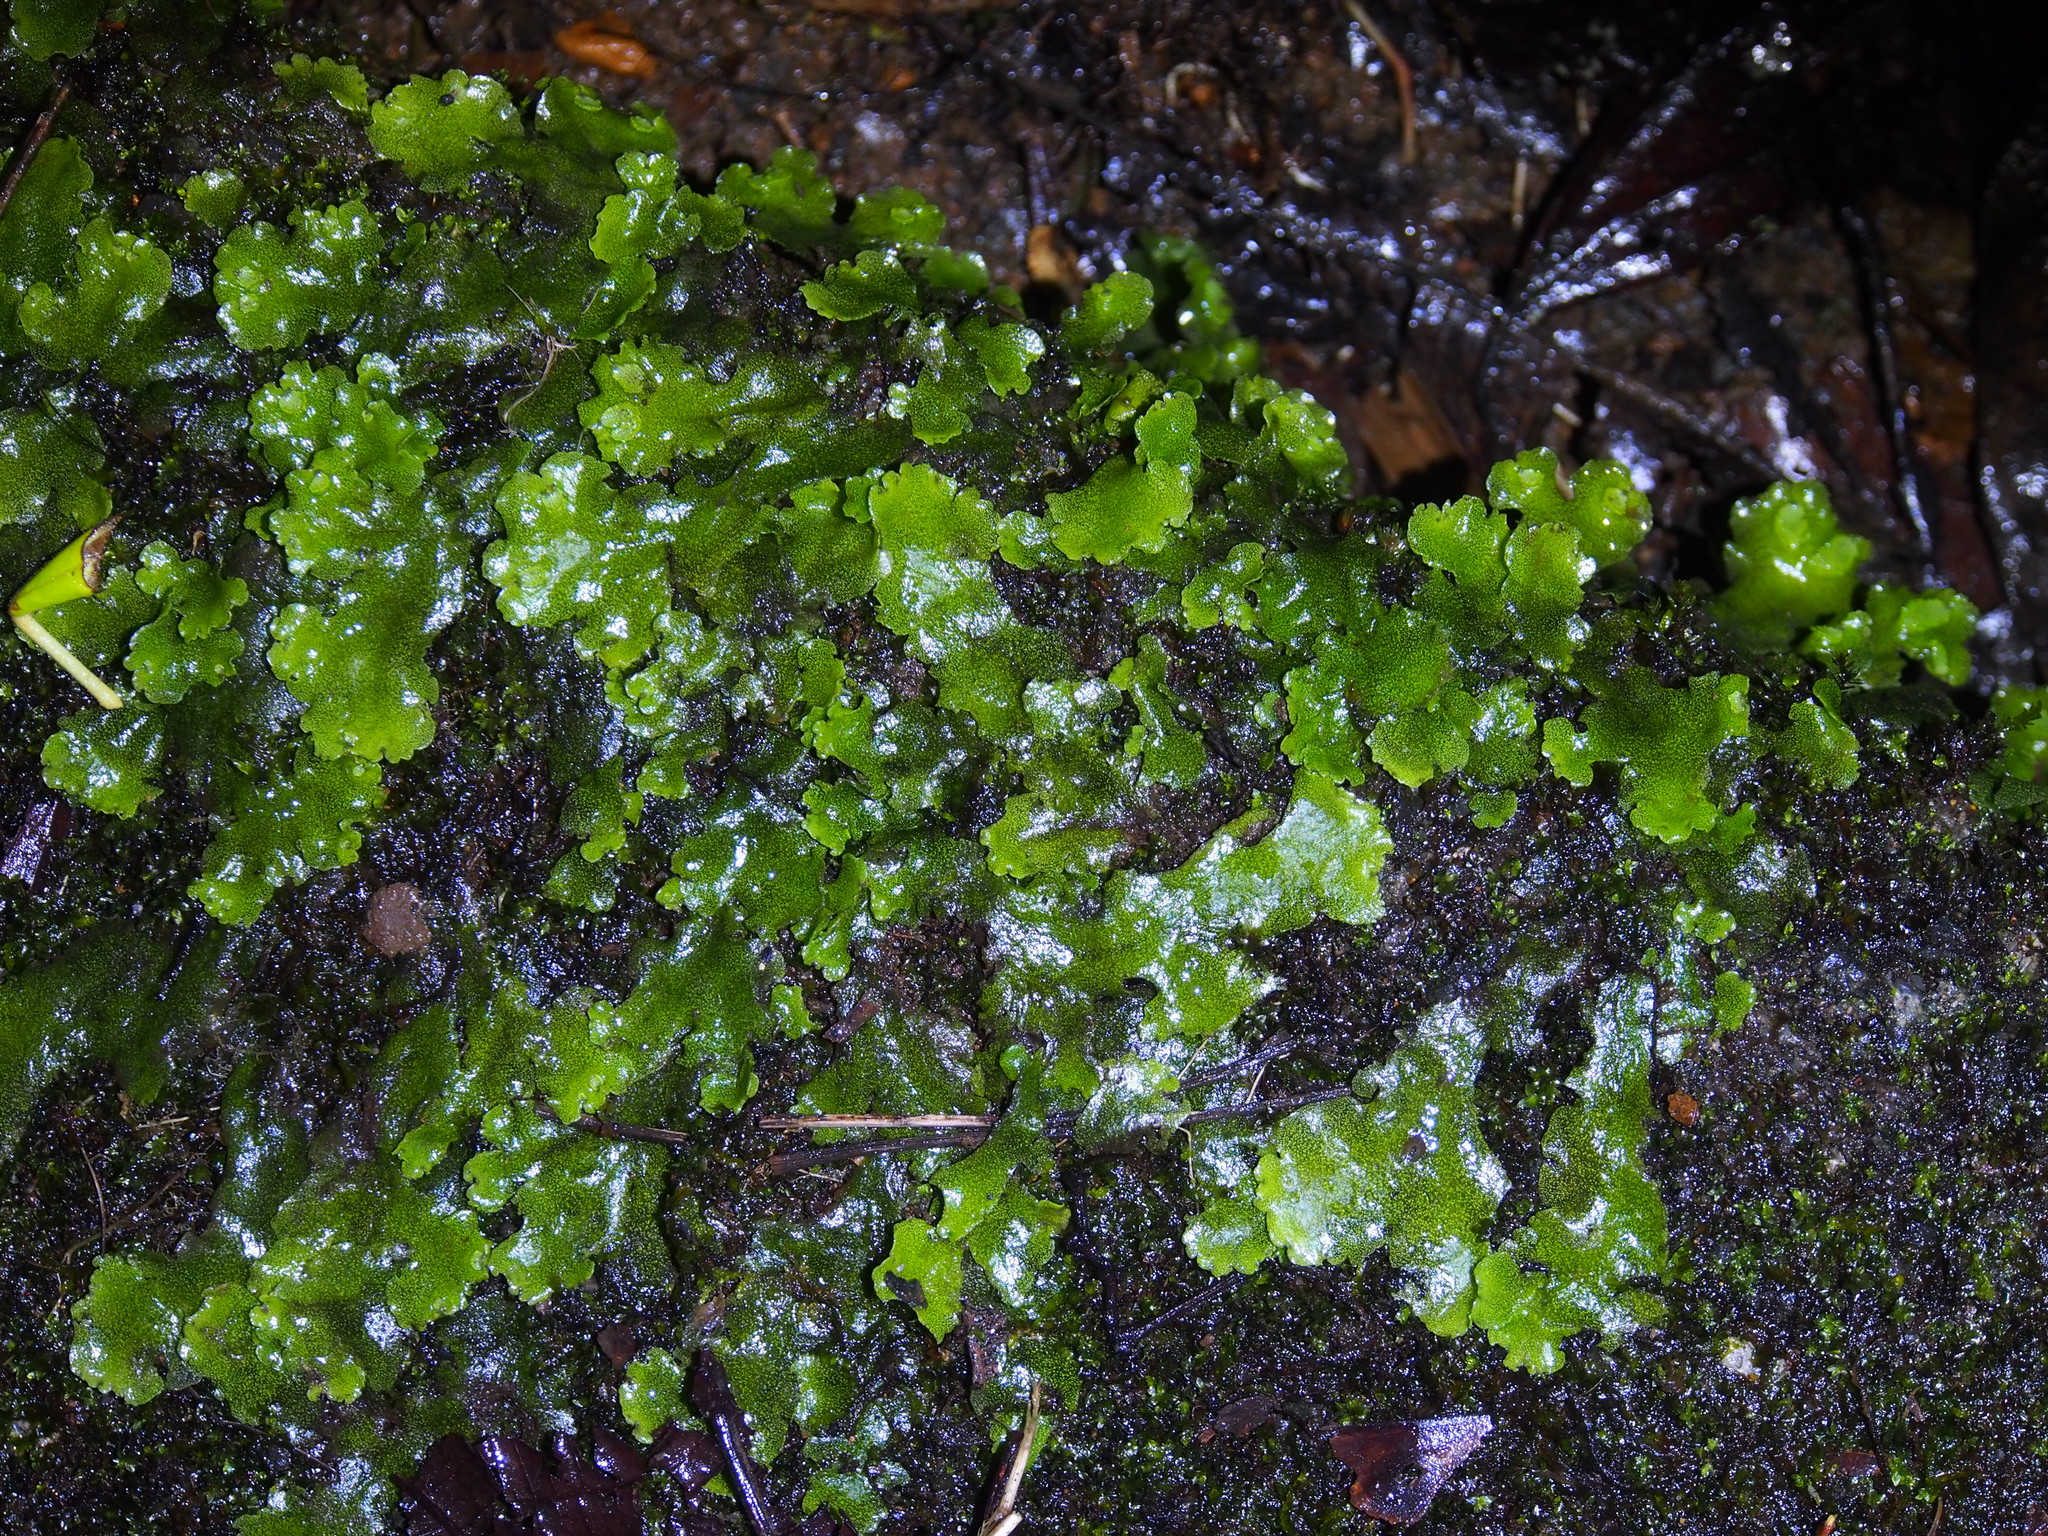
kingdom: Plantae
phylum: Marchantiophyta
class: Marchantiopsida
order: Marchantiales
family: Monocleaceae
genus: Monoclea
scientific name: Monoclea gottschei
